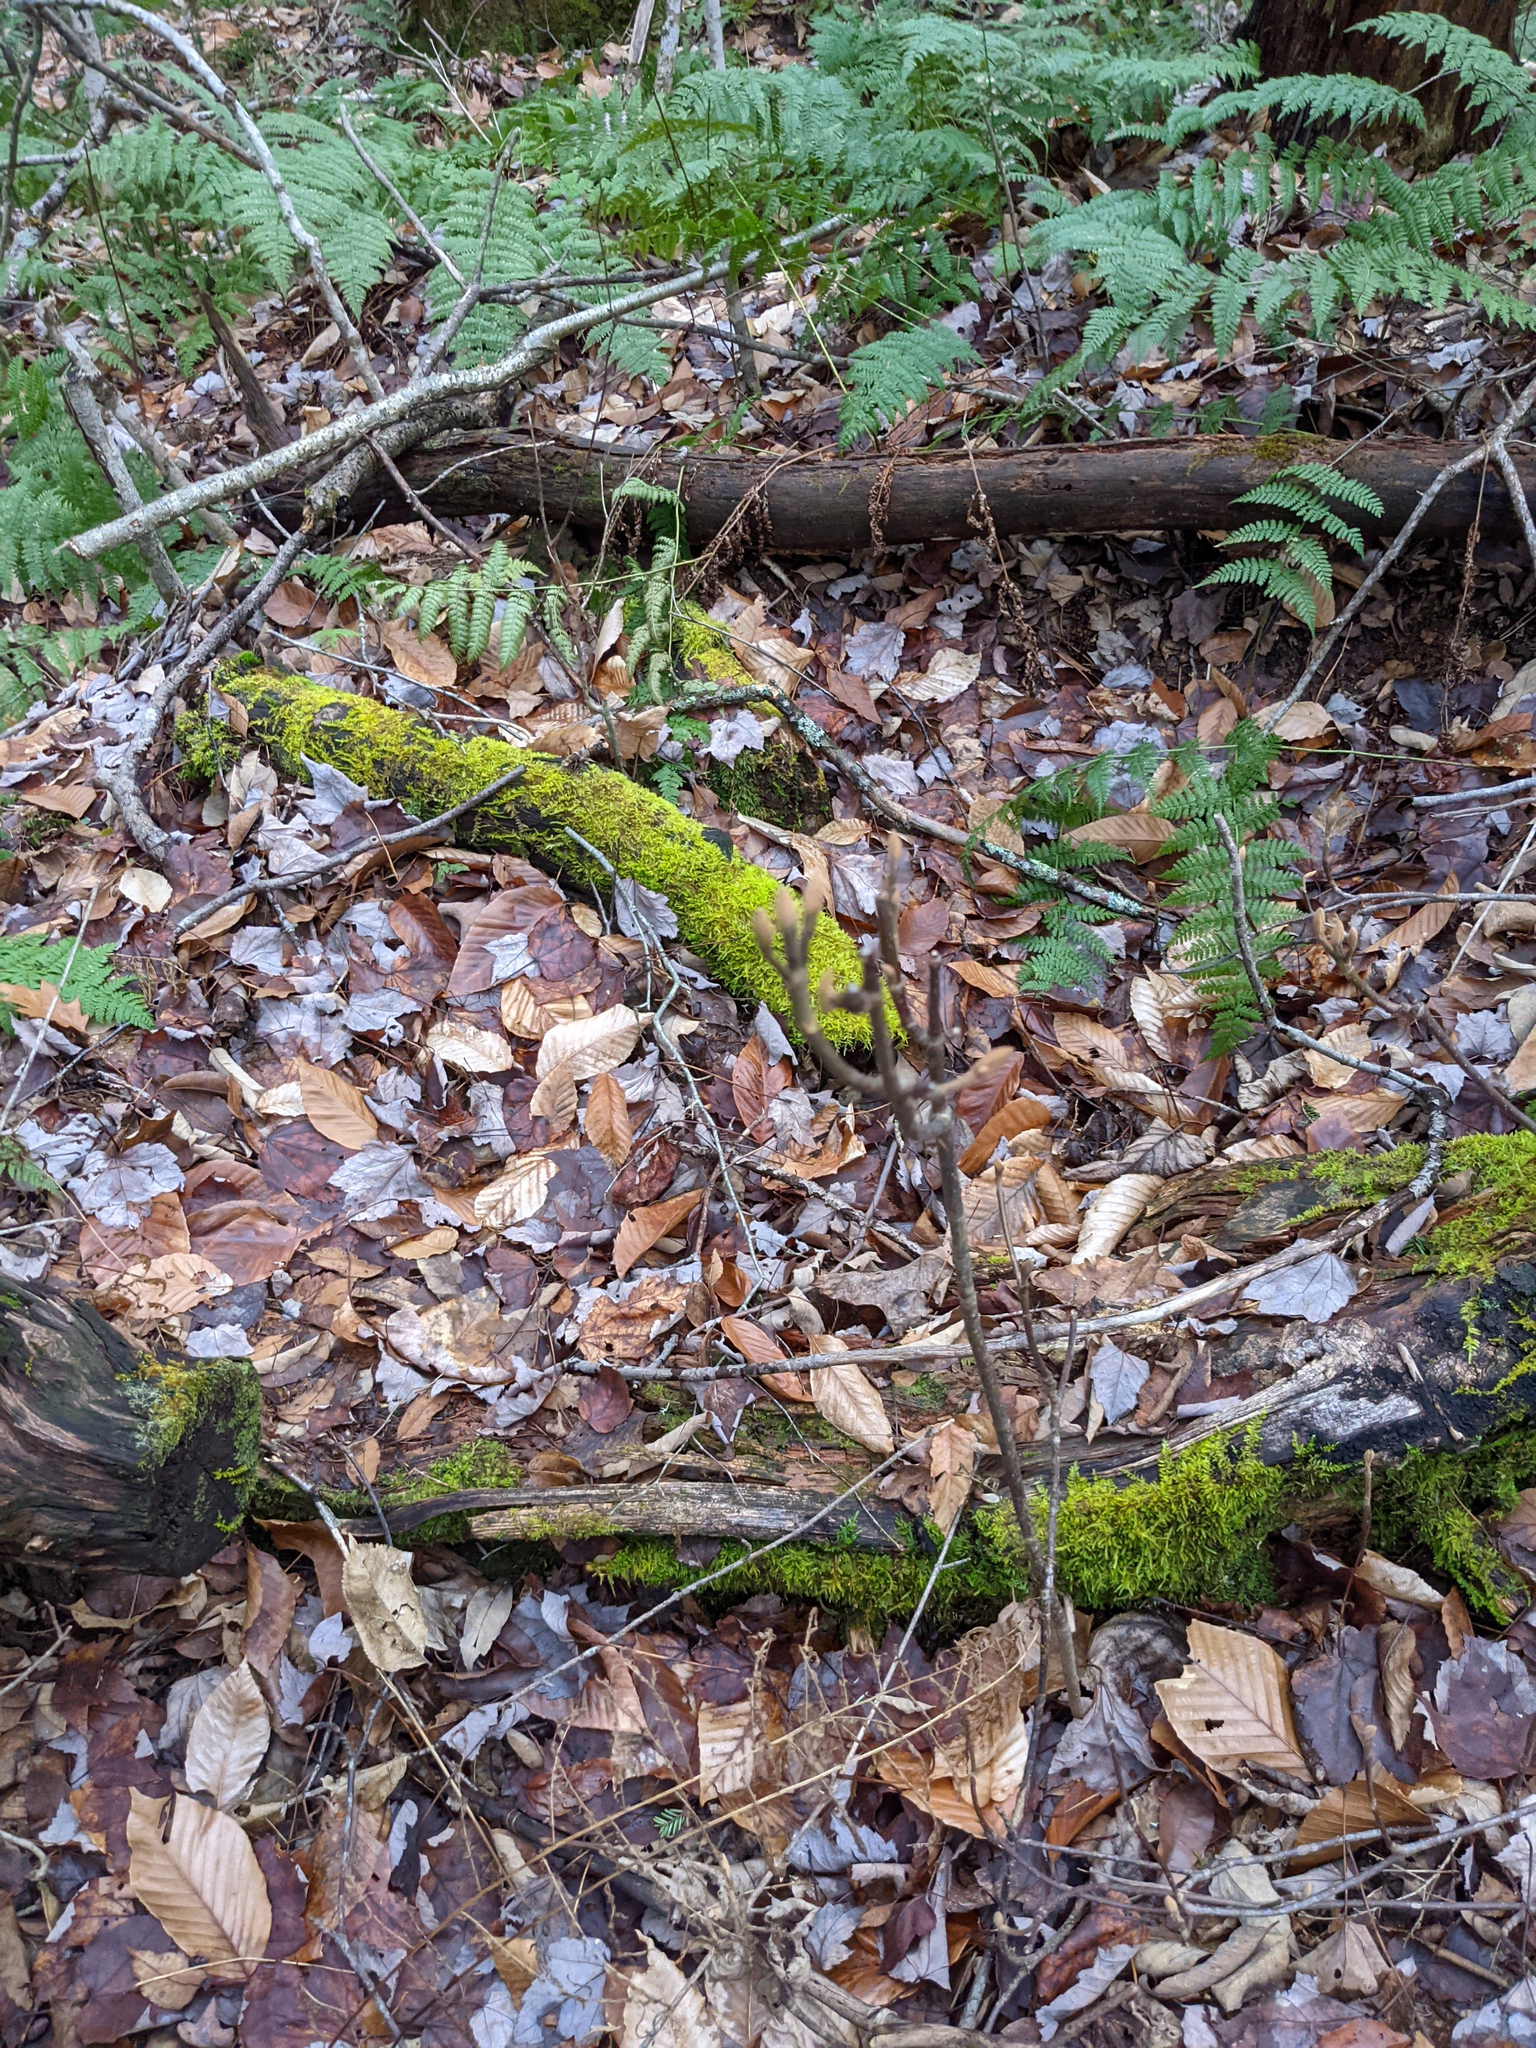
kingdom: Plantae
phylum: Tracheophyta
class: Magnoliopsida
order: Dipsacales
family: Viburnaceae
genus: Viburnum
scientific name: Viburnum lantanoides
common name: Hobblebush
